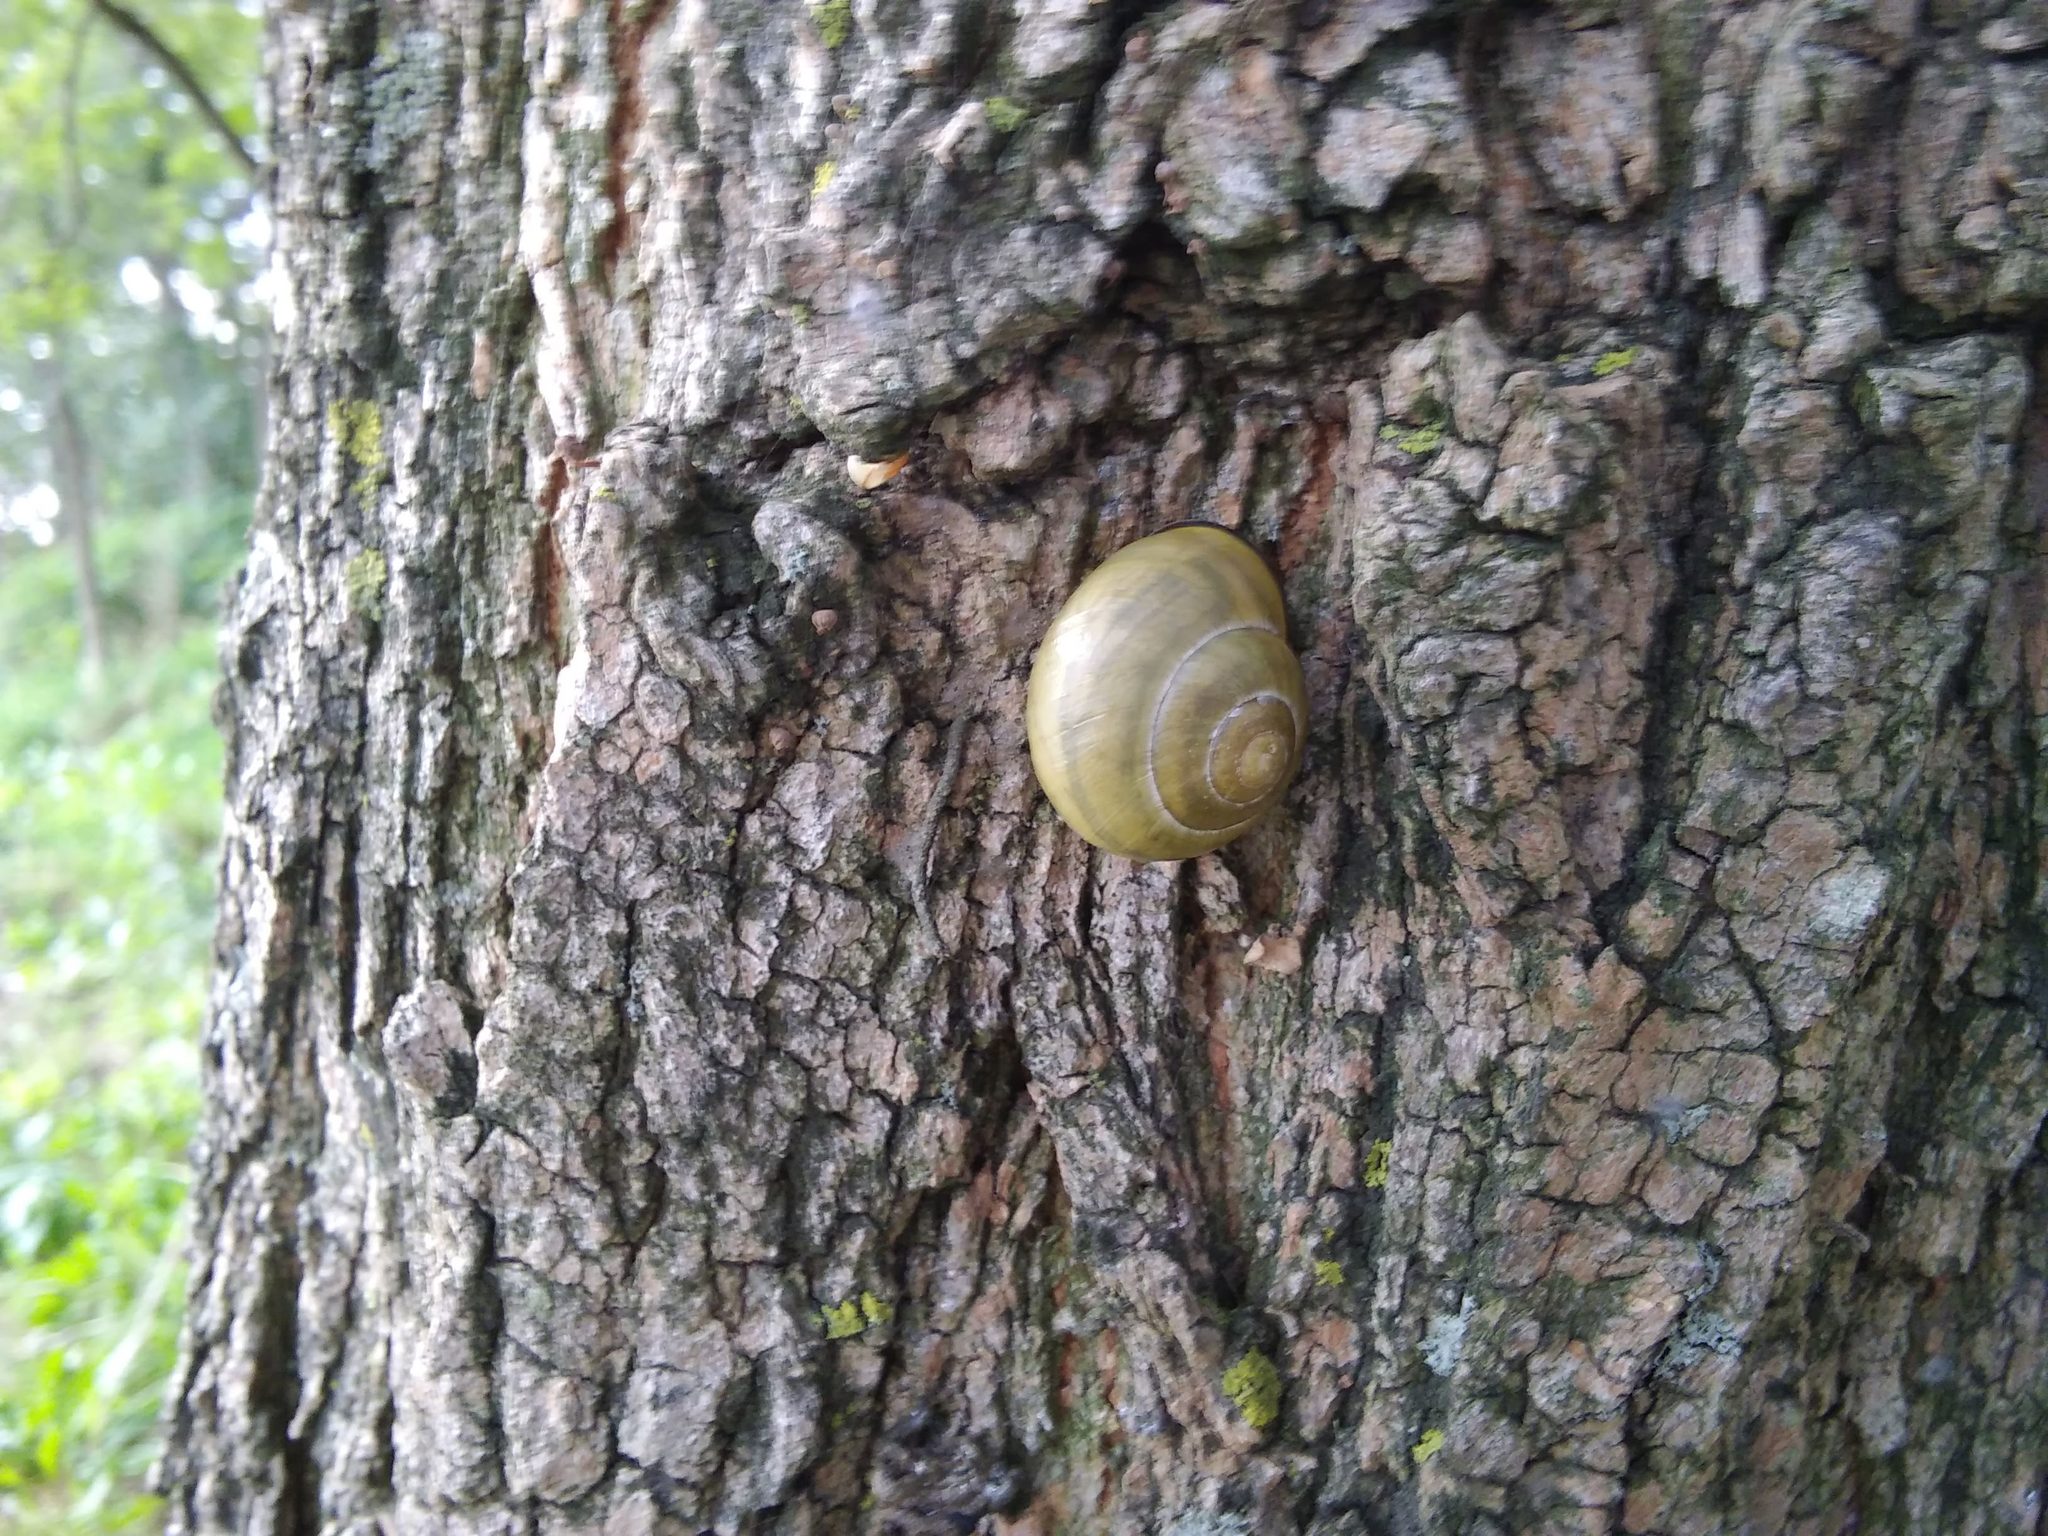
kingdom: Animalia
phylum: Mollusca
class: Gastropoda
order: Stylommatophora
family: Helicidae
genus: Cepaea
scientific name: Cepaea nemoralis
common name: Grovesnail
